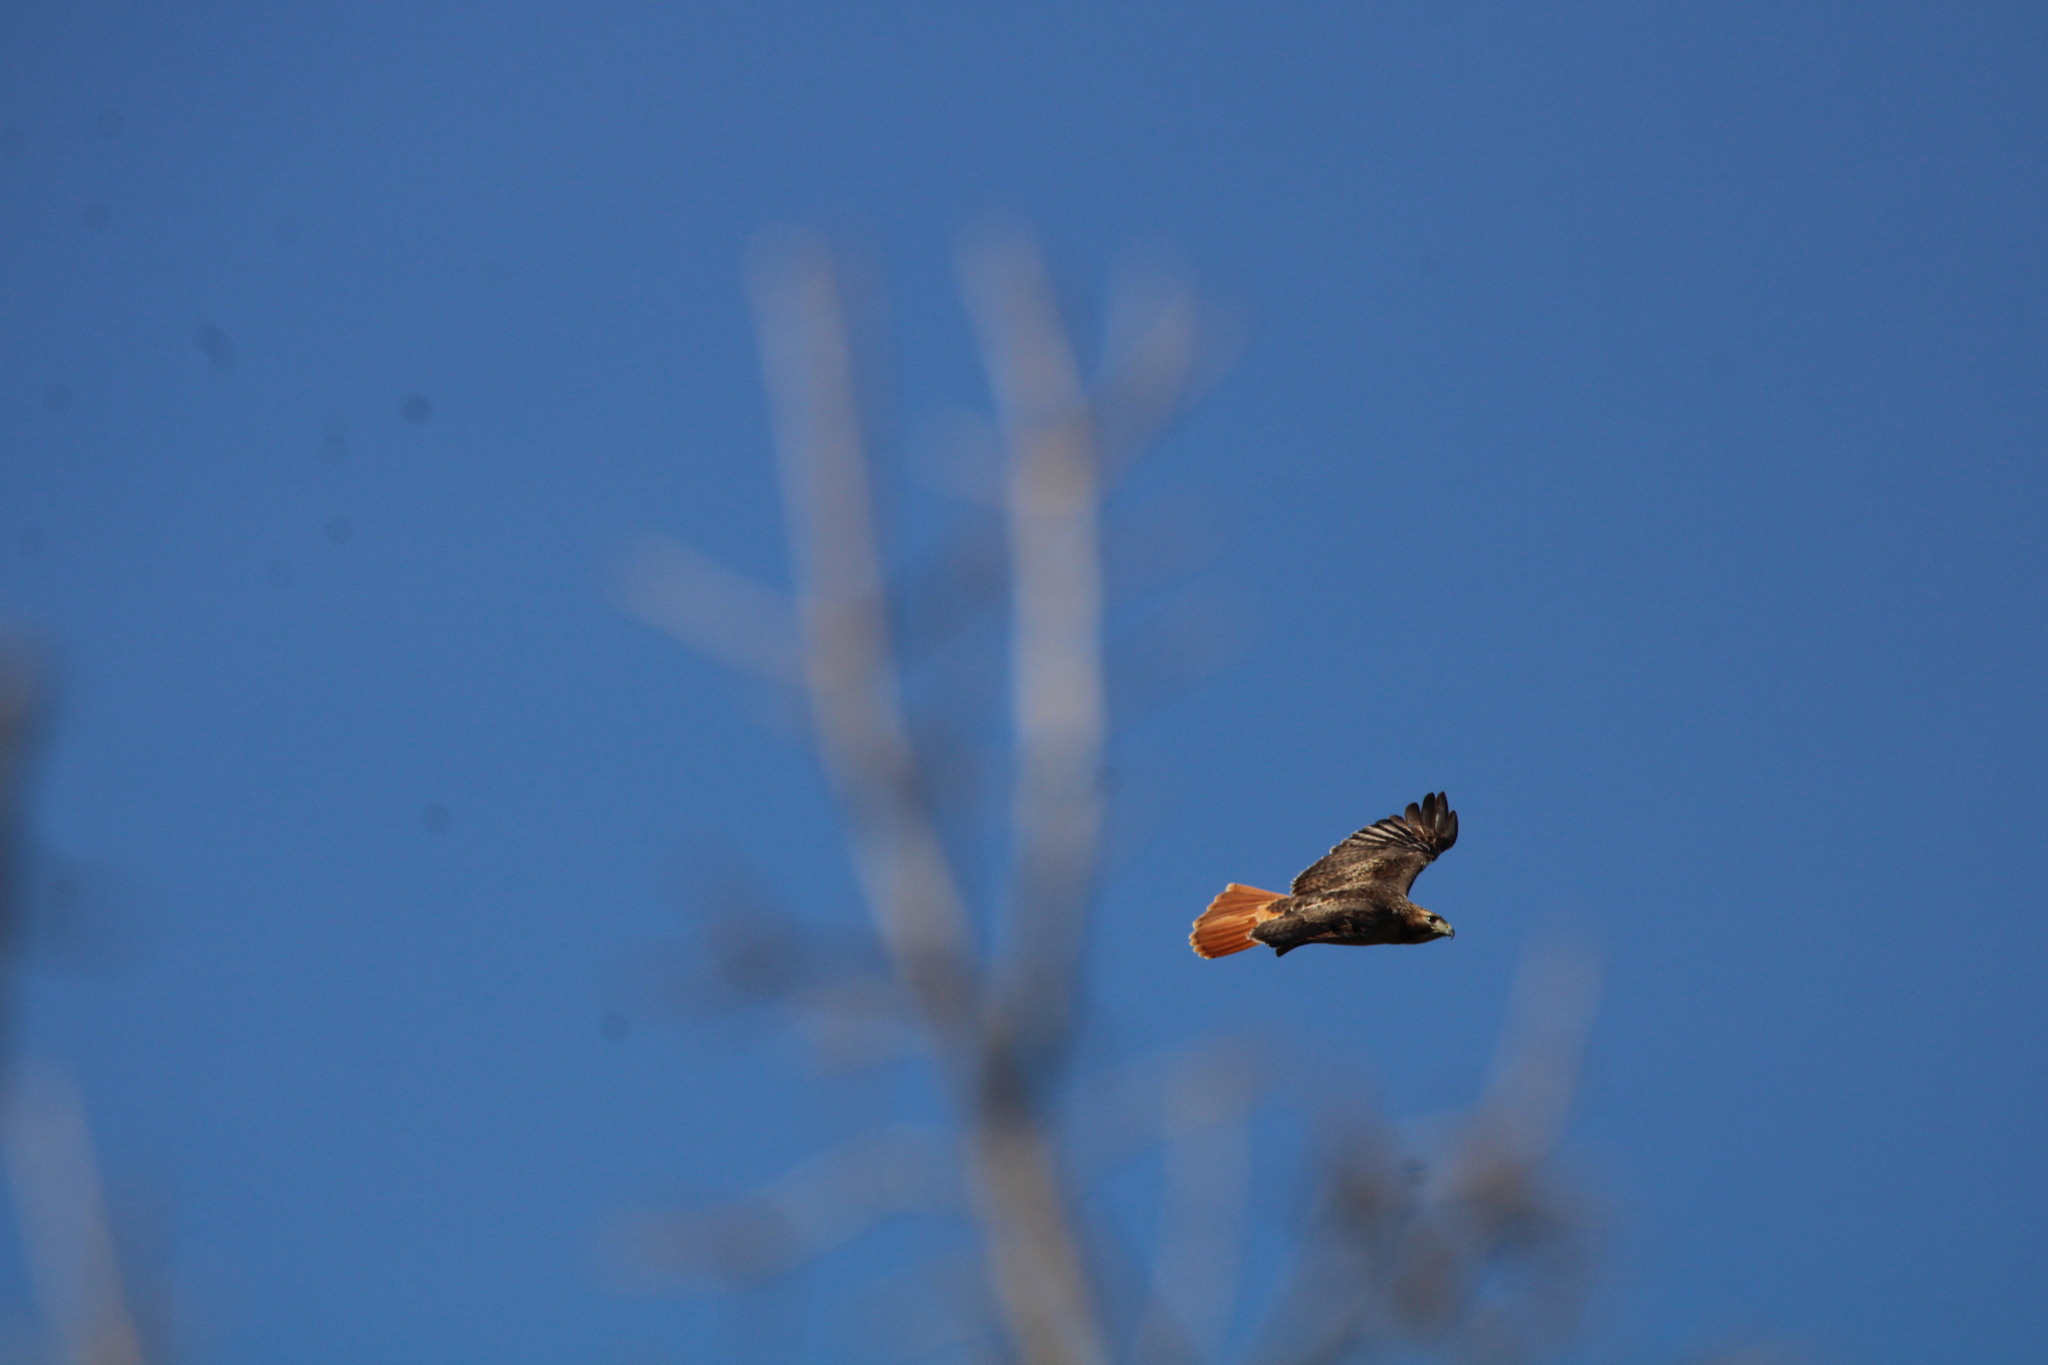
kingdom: Animalia
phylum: Chordata
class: Aves
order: Accipitriformes
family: Accipitridae
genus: Buteo
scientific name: Buteo jamaicensis
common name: Red-tailed hawk
